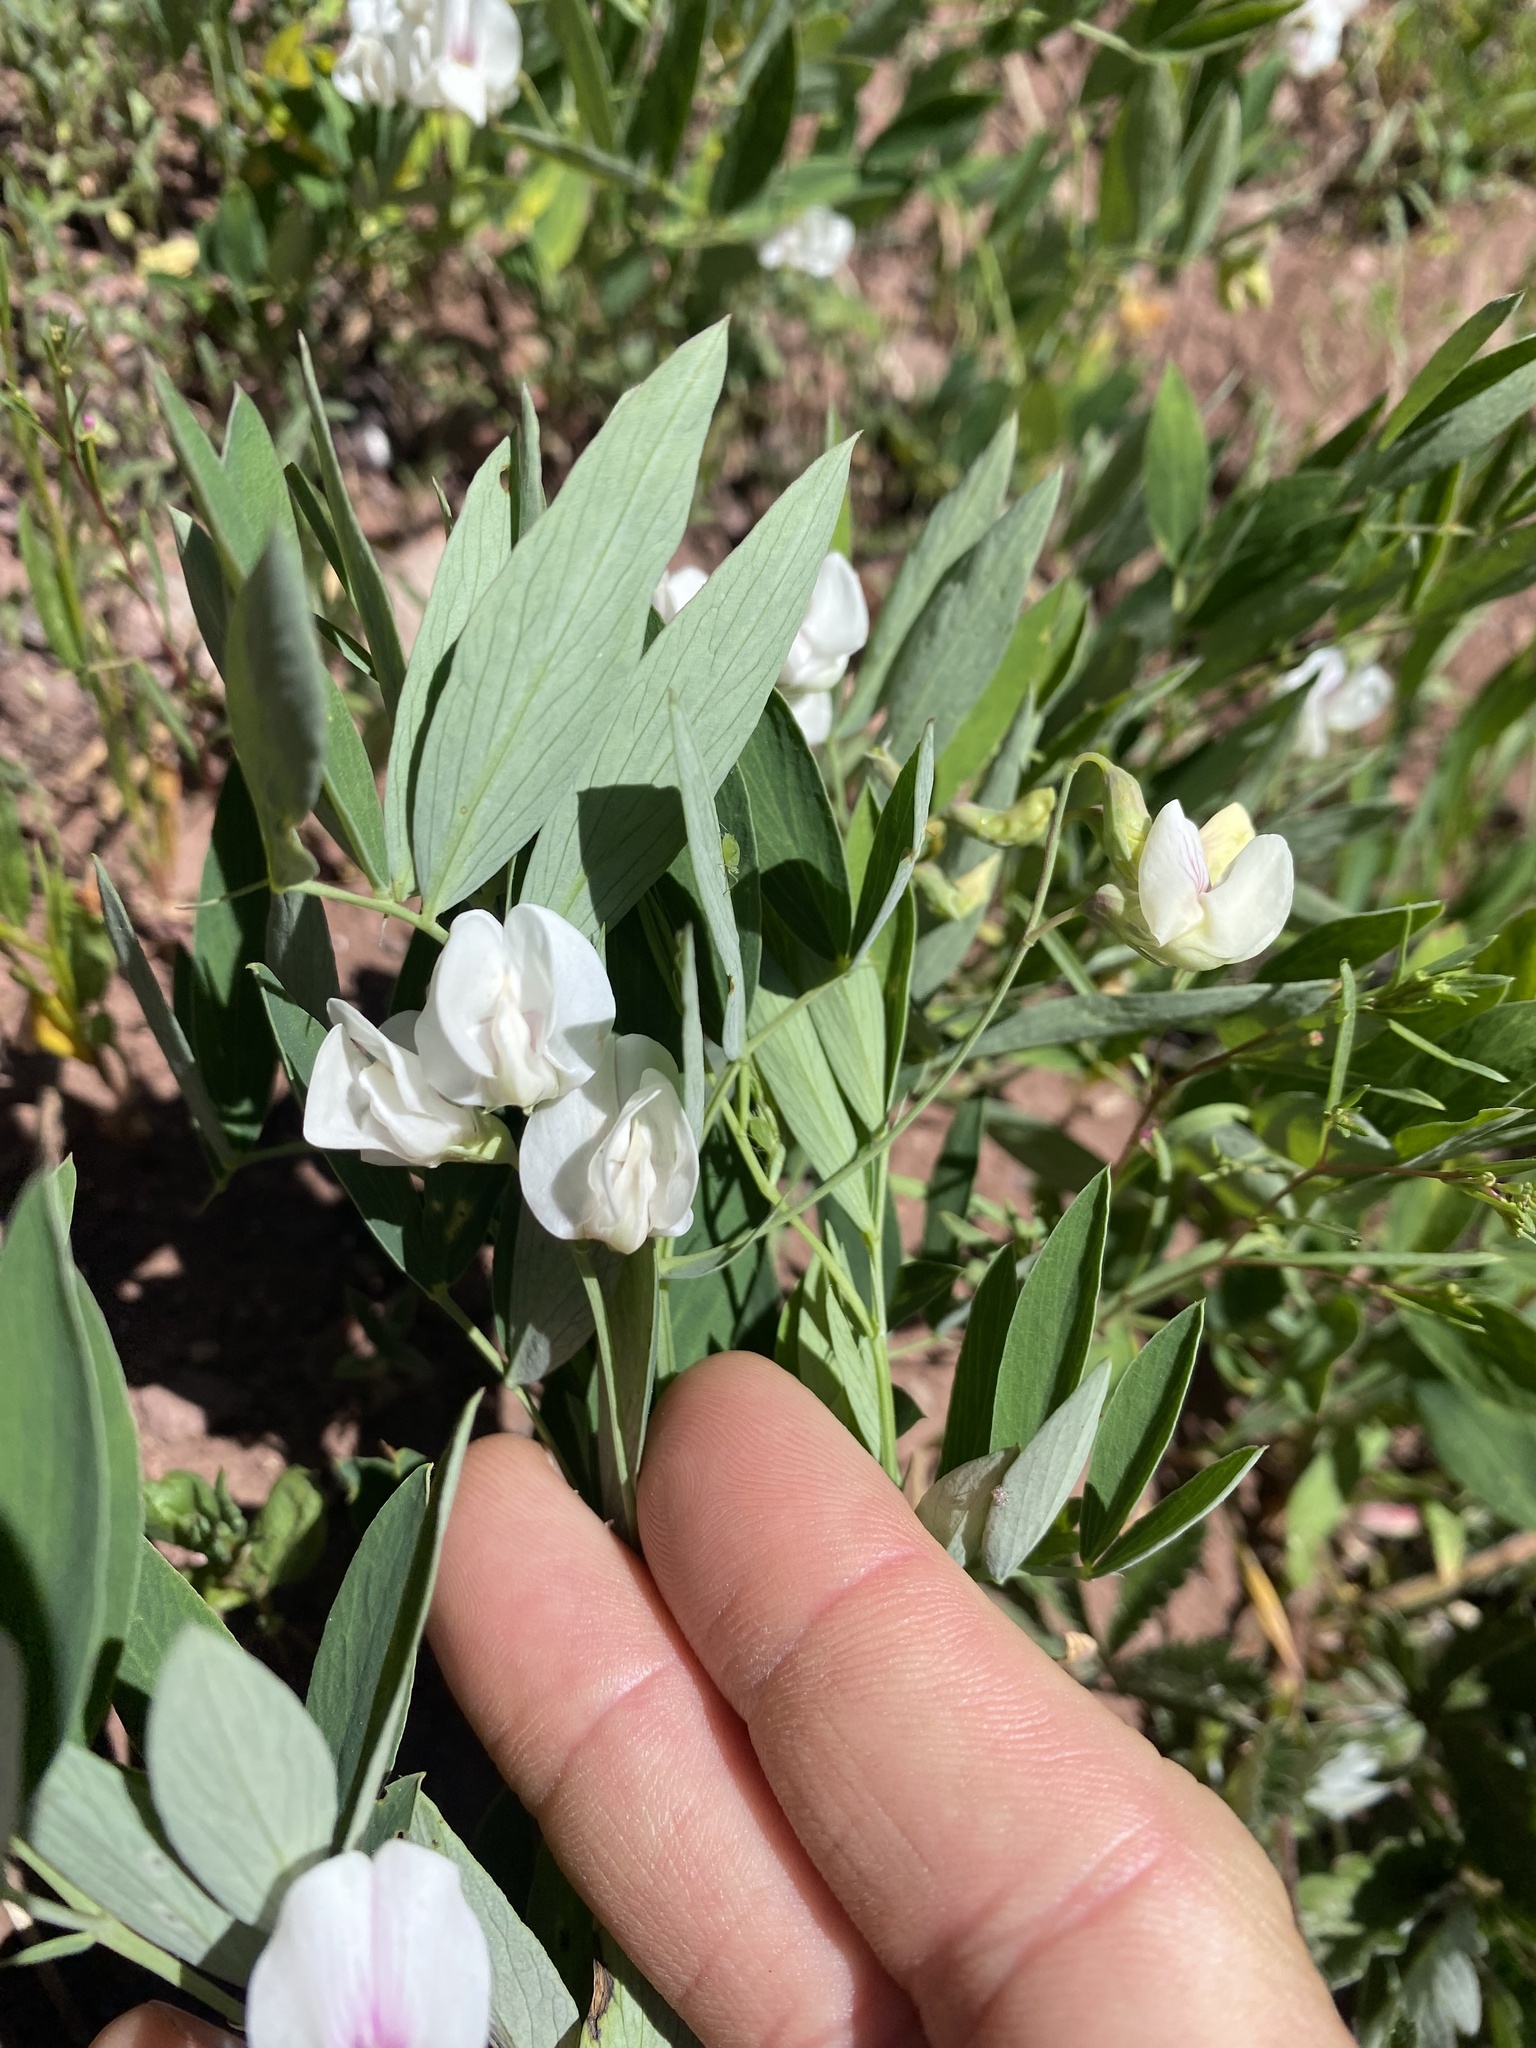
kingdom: Plantae
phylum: Tracheophyta
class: Magnoliopsida
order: Fabales
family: Fabaceae
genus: Lathyrus
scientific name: Lathyrus lanszwertii
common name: Lanszwert's vetchling
